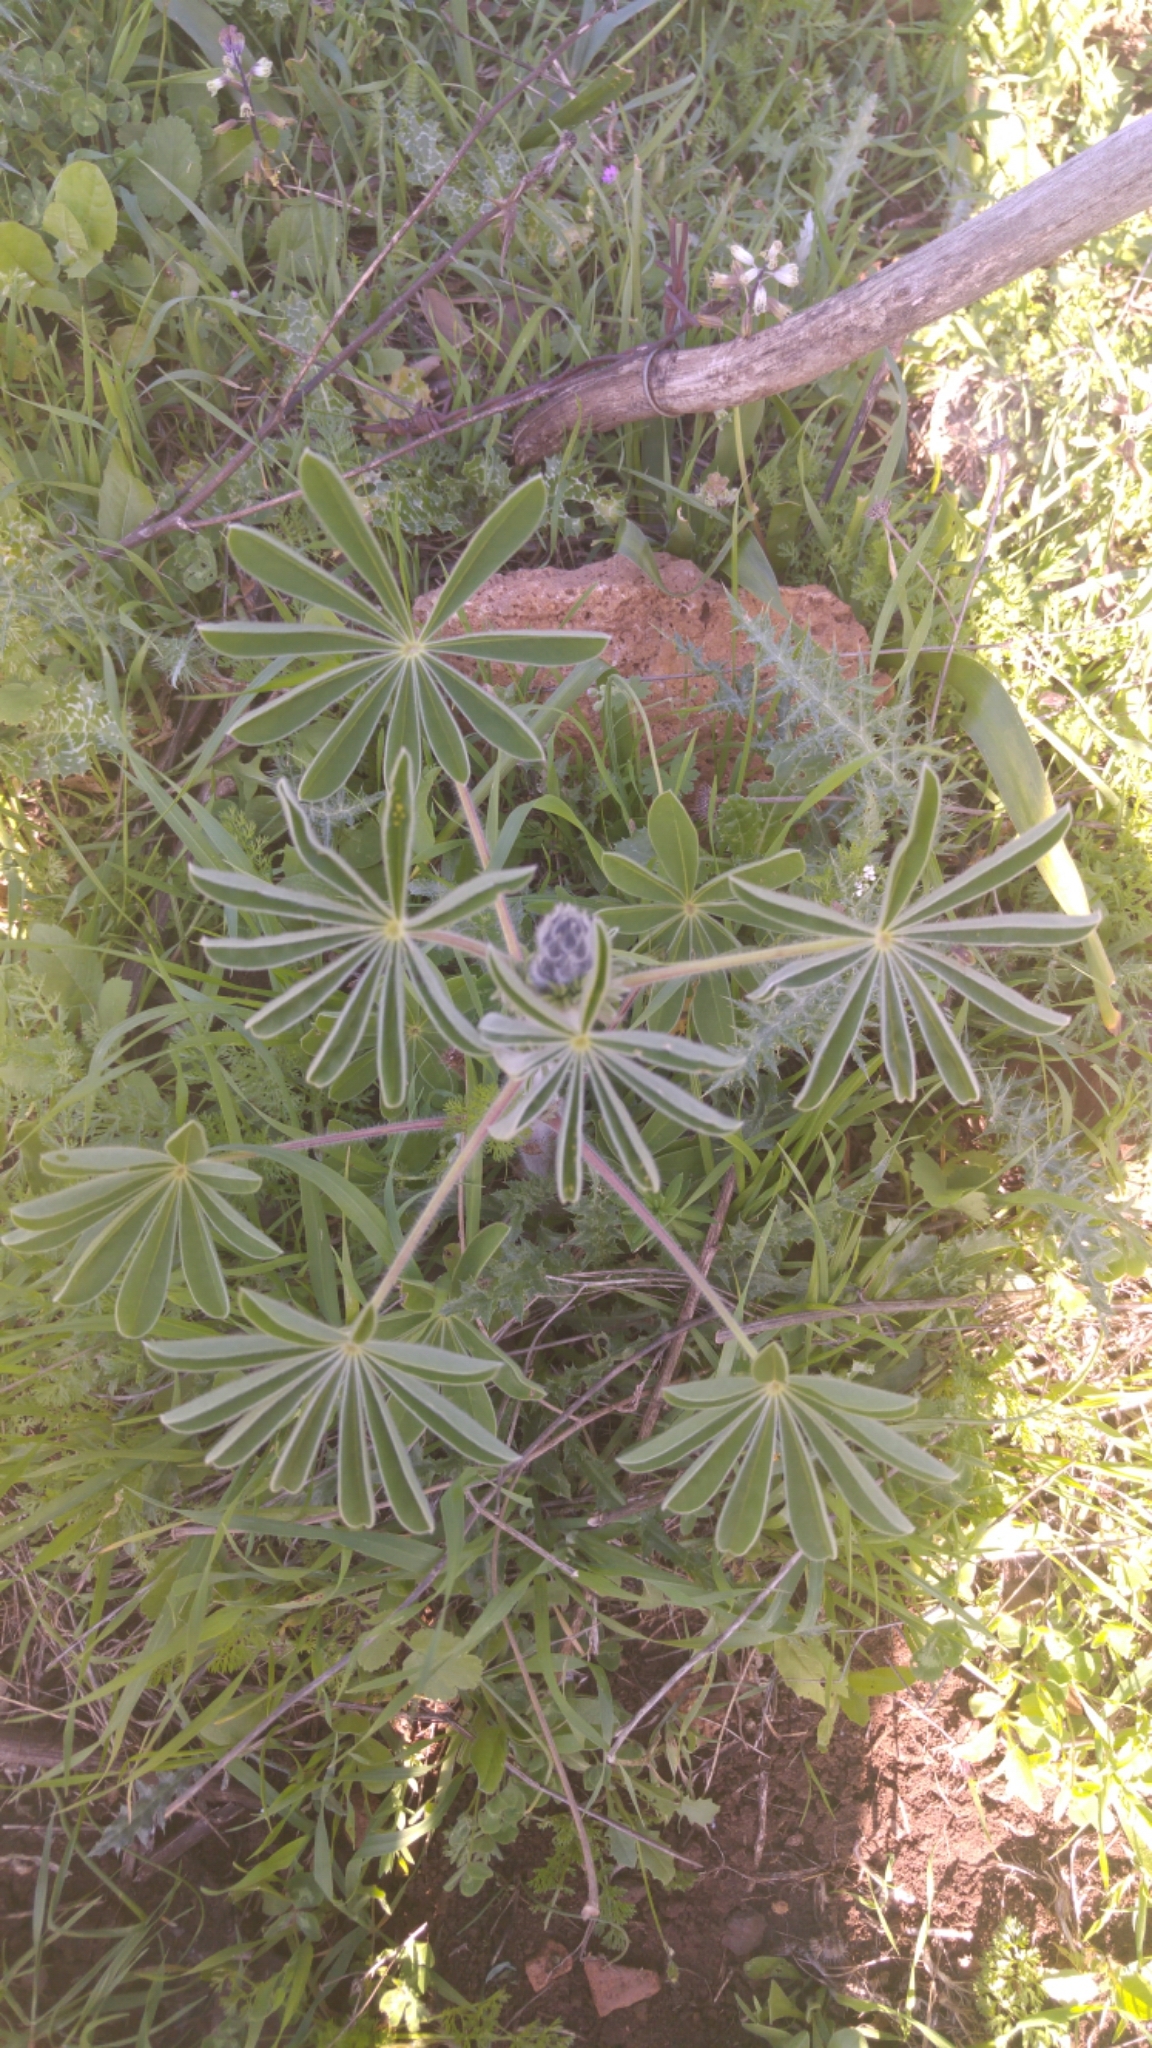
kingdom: Plantae
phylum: Tracheophyta
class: Magnoliopsida
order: Fabales
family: Fabaceae
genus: Lupinus
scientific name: Lupinus pilosus
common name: Blue lupine
